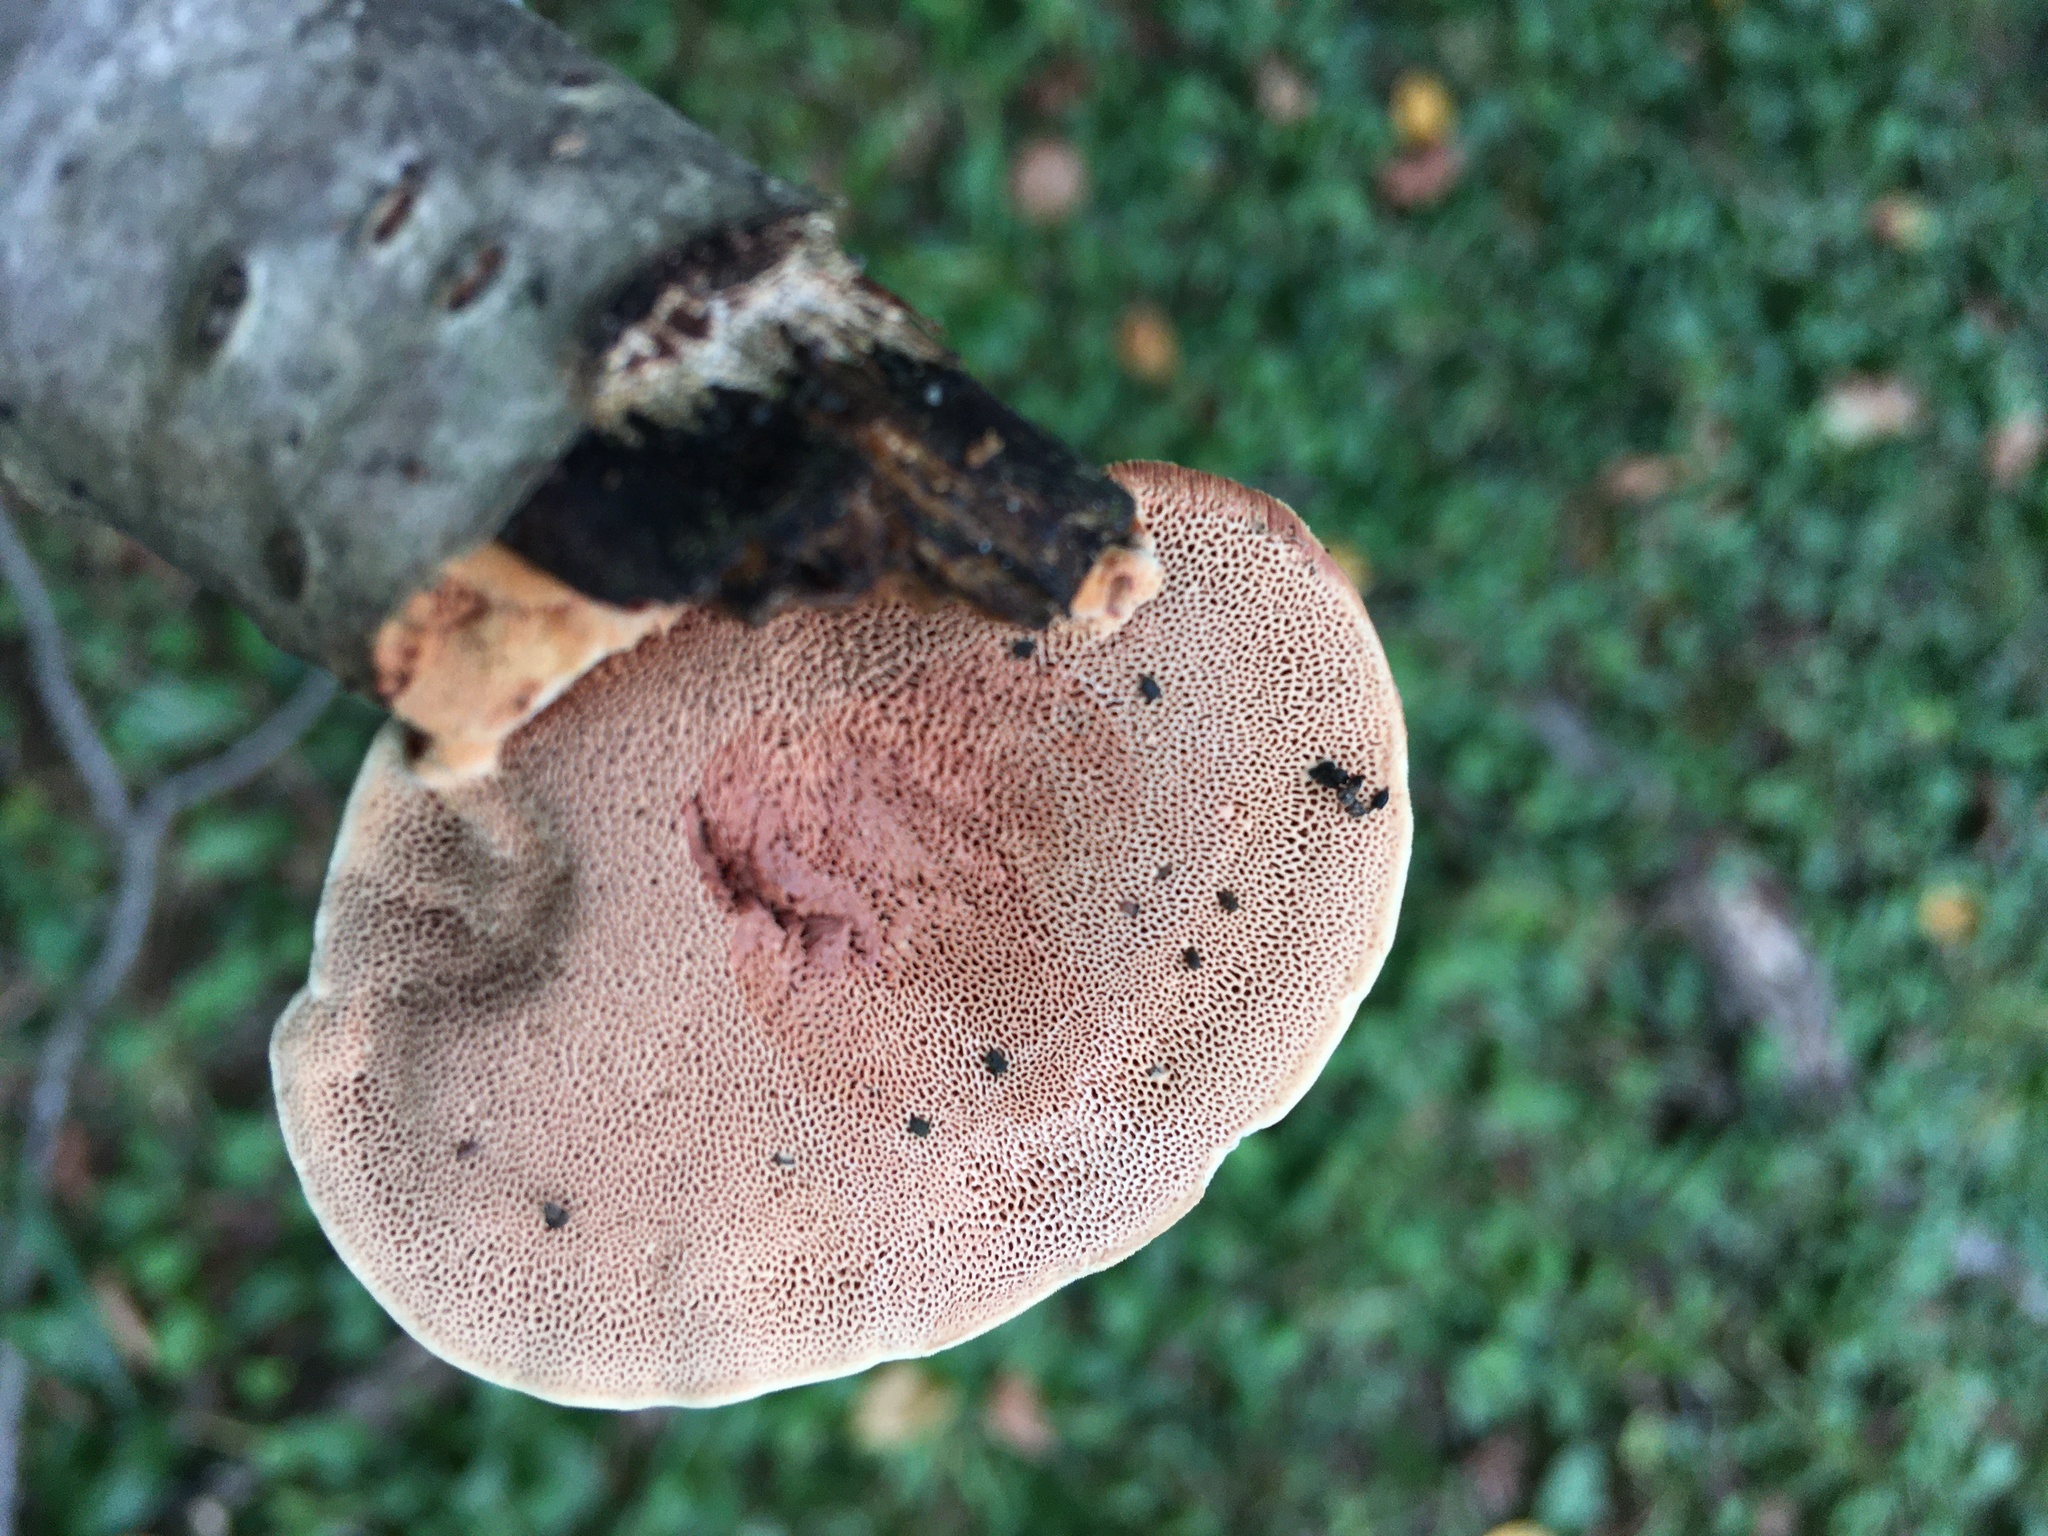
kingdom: Fungi
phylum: Basidiomycota
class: Agaricomycetes
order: Polyporales
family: Phanerochaetaceae
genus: Hapalopilus
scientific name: Hapalopilus rutilans
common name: Tender nesting polypore
